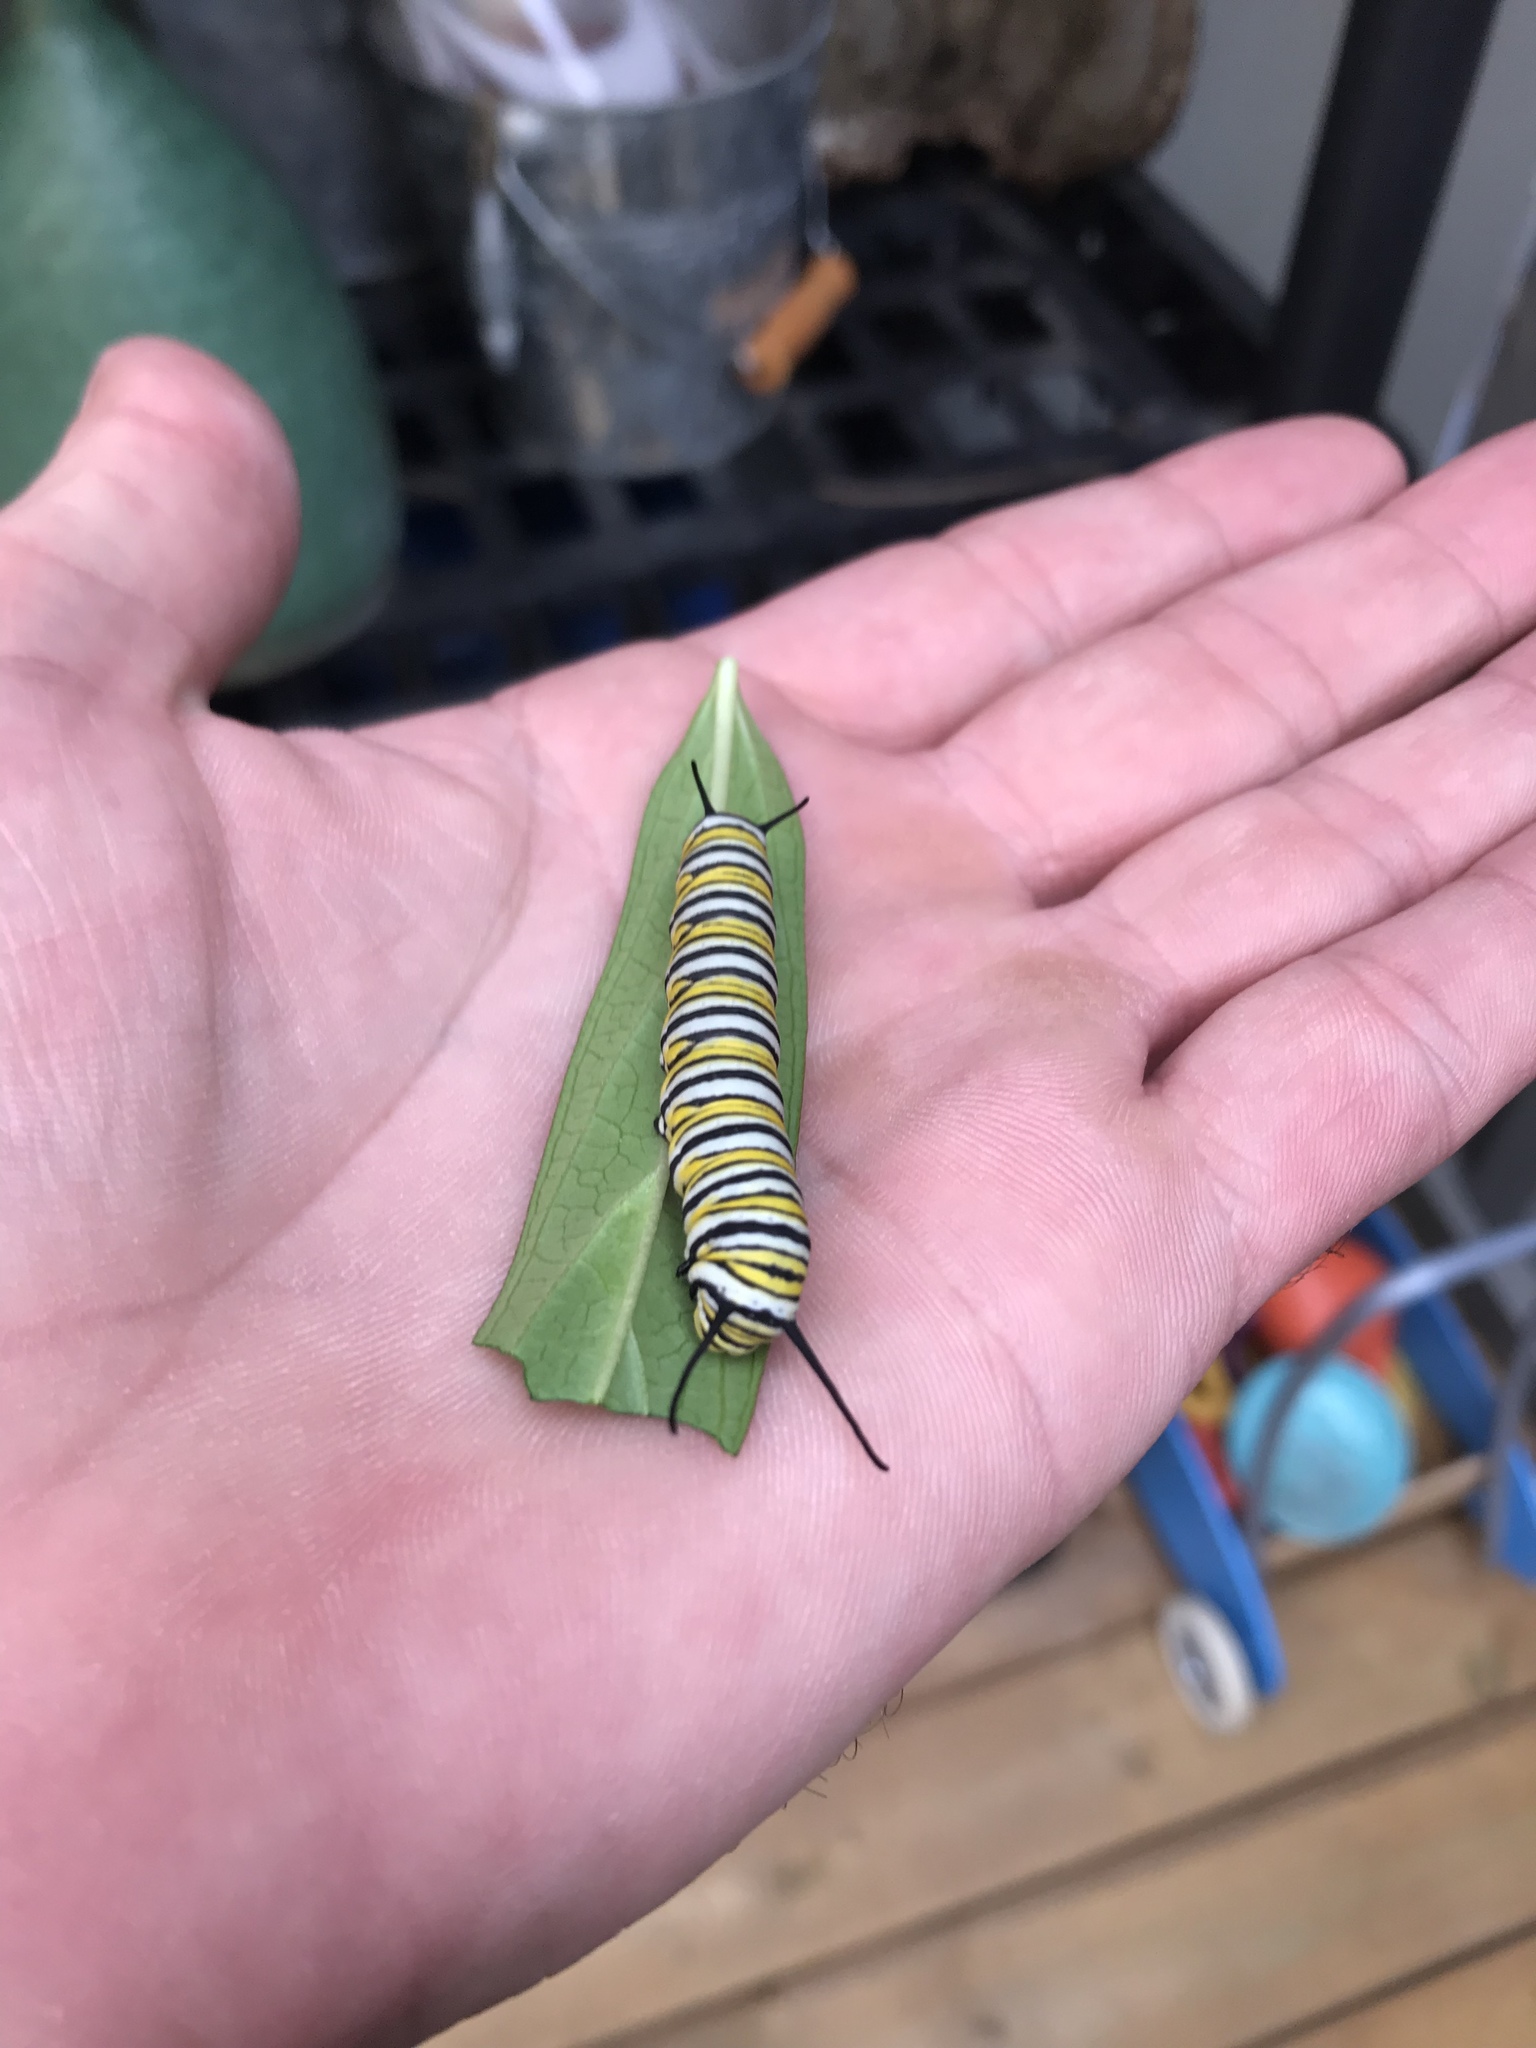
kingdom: Animalia
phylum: Arthropoda
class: Insecta
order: Lepidoptera
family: Nymphalidae
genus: Danaus
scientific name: Danaus plexippus
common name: Monarch
